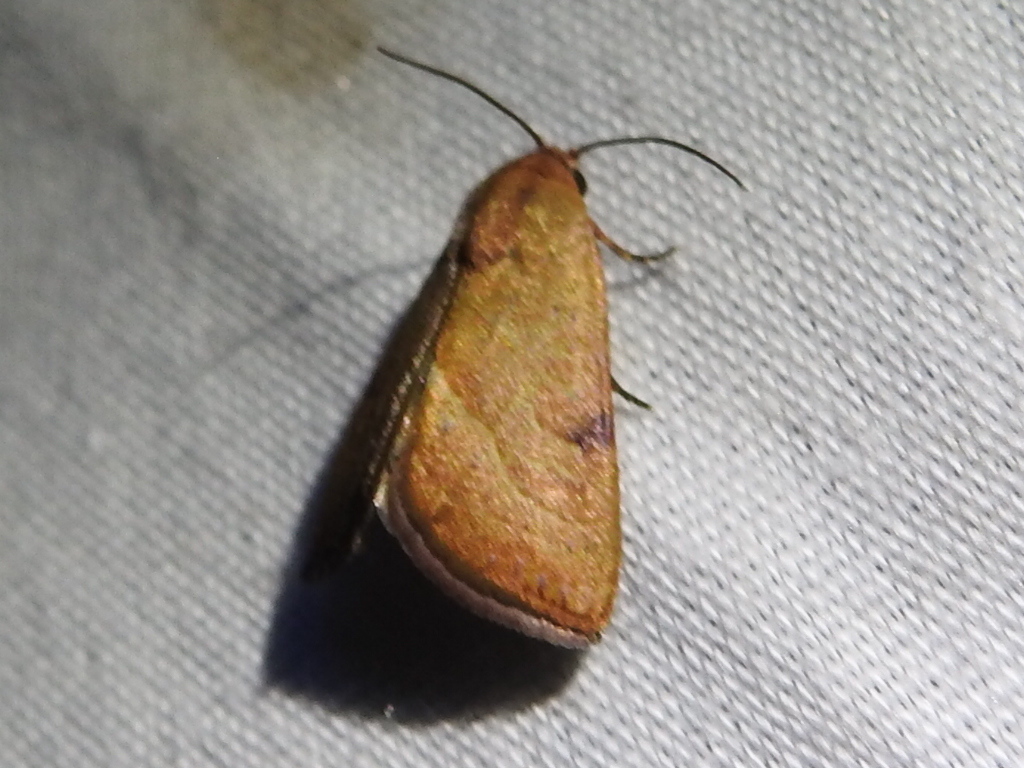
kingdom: Animalia
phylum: Arthropoda
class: Insecta
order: Lepidoptera
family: Noctuidae
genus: Galgula
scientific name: Galgula partita
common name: Wedgeling
